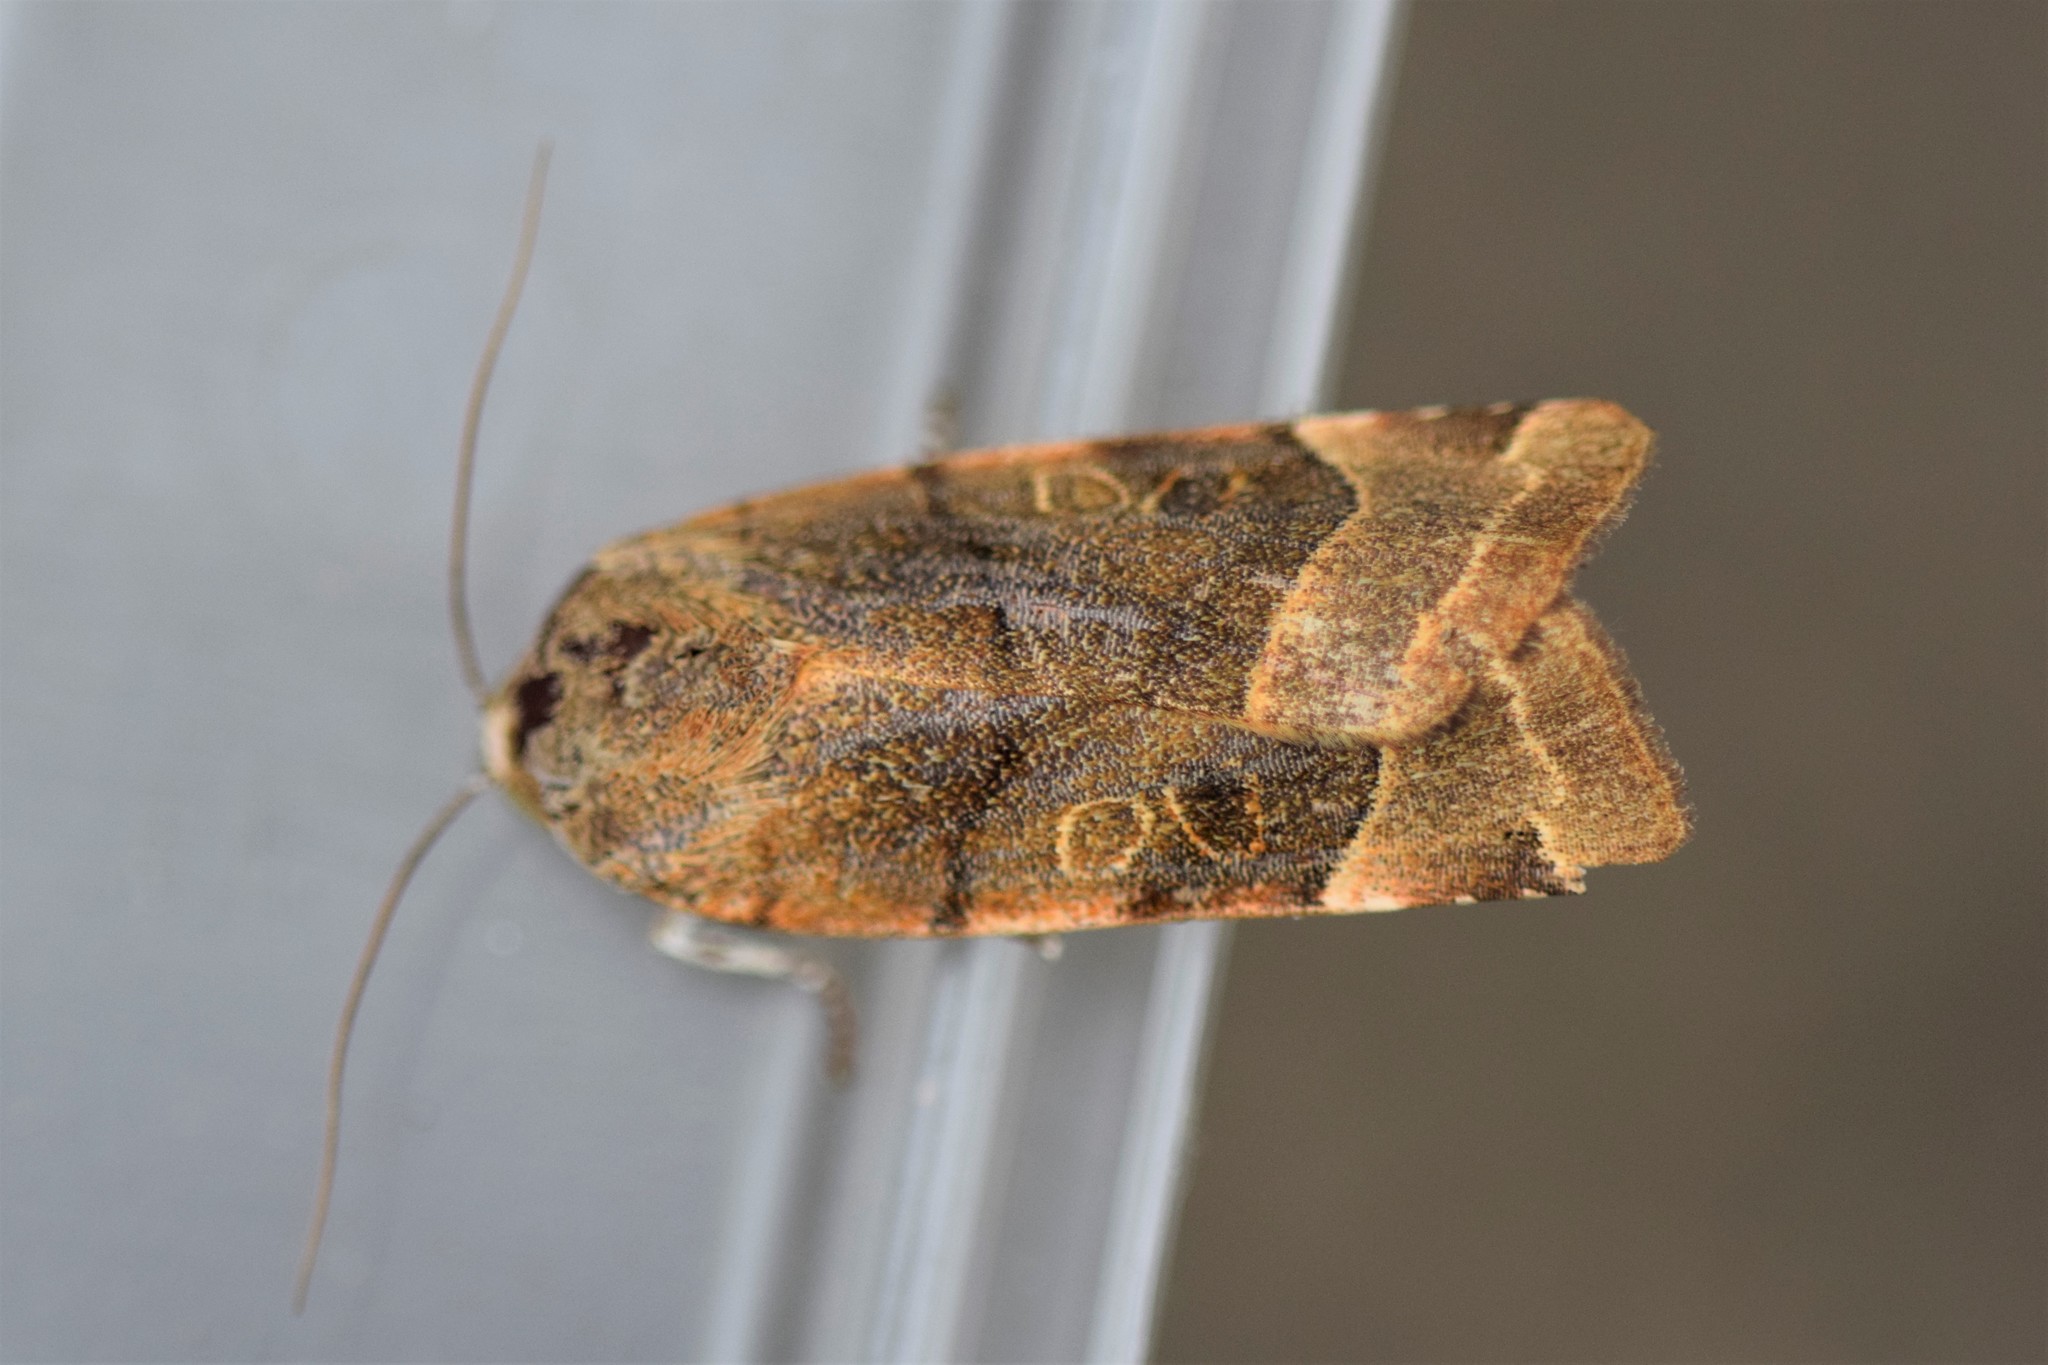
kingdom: Animalia
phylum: Arthropoda
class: Insecta
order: Lepidoptera
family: Noctuidae
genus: Noctua
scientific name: Noctua fimbriata
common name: Broad-bordered yellow underwing
